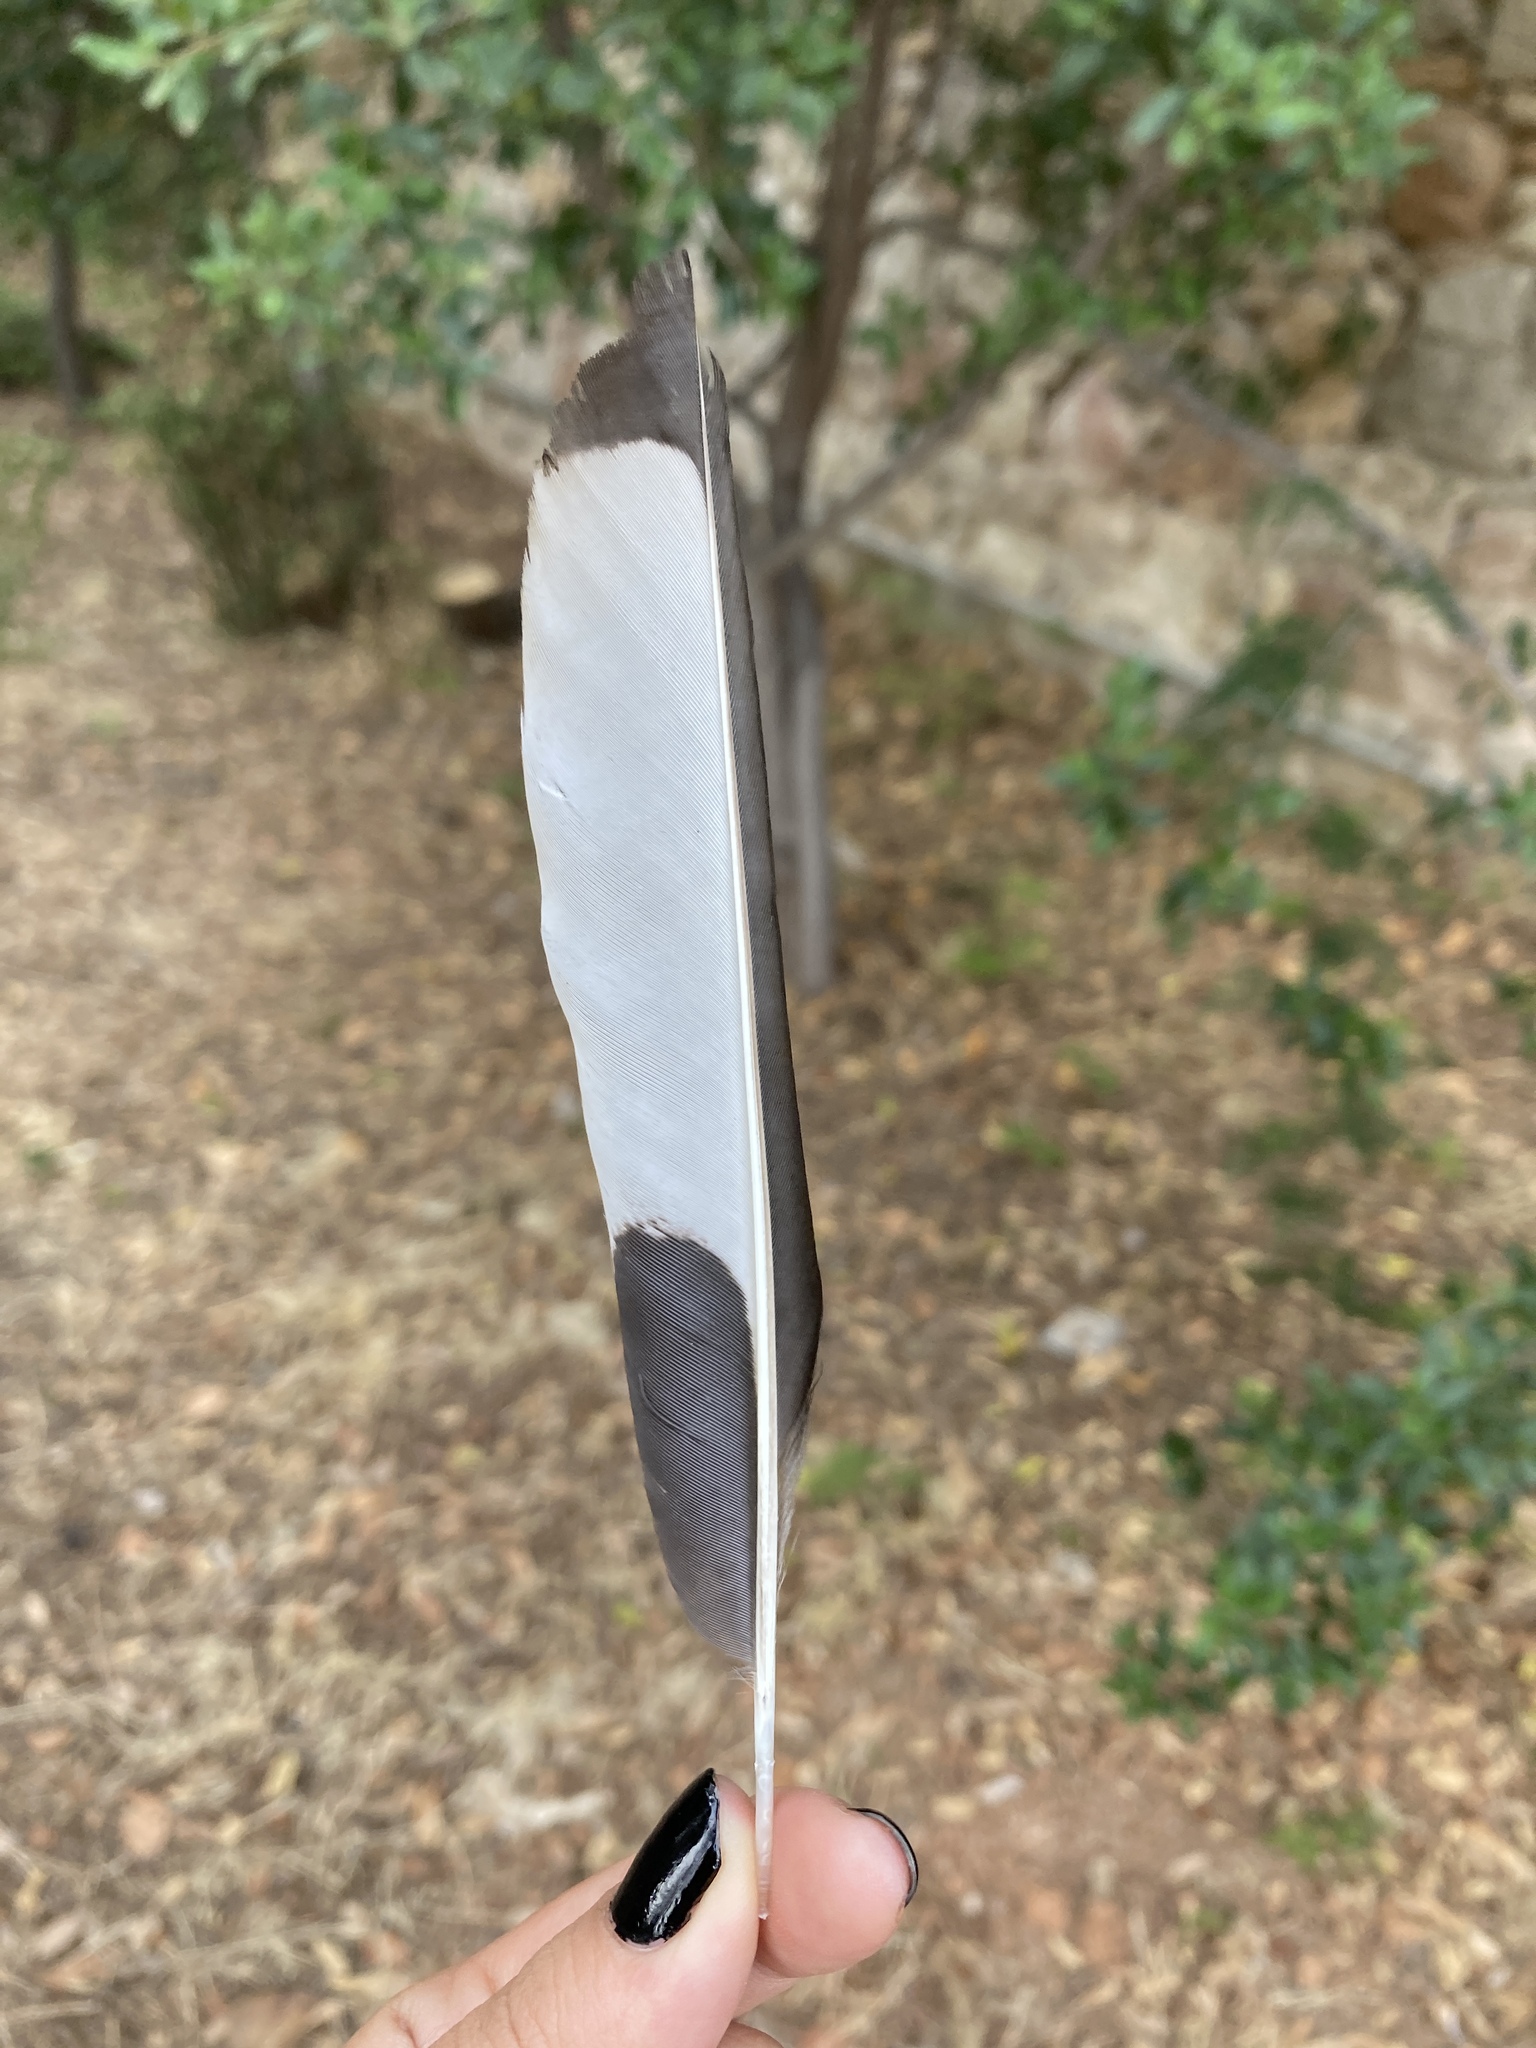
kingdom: Animalia
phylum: Chordata
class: Aves
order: Passeriformes
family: Corvidae
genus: Pica
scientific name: Pica pica
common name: Eurasian magpie
